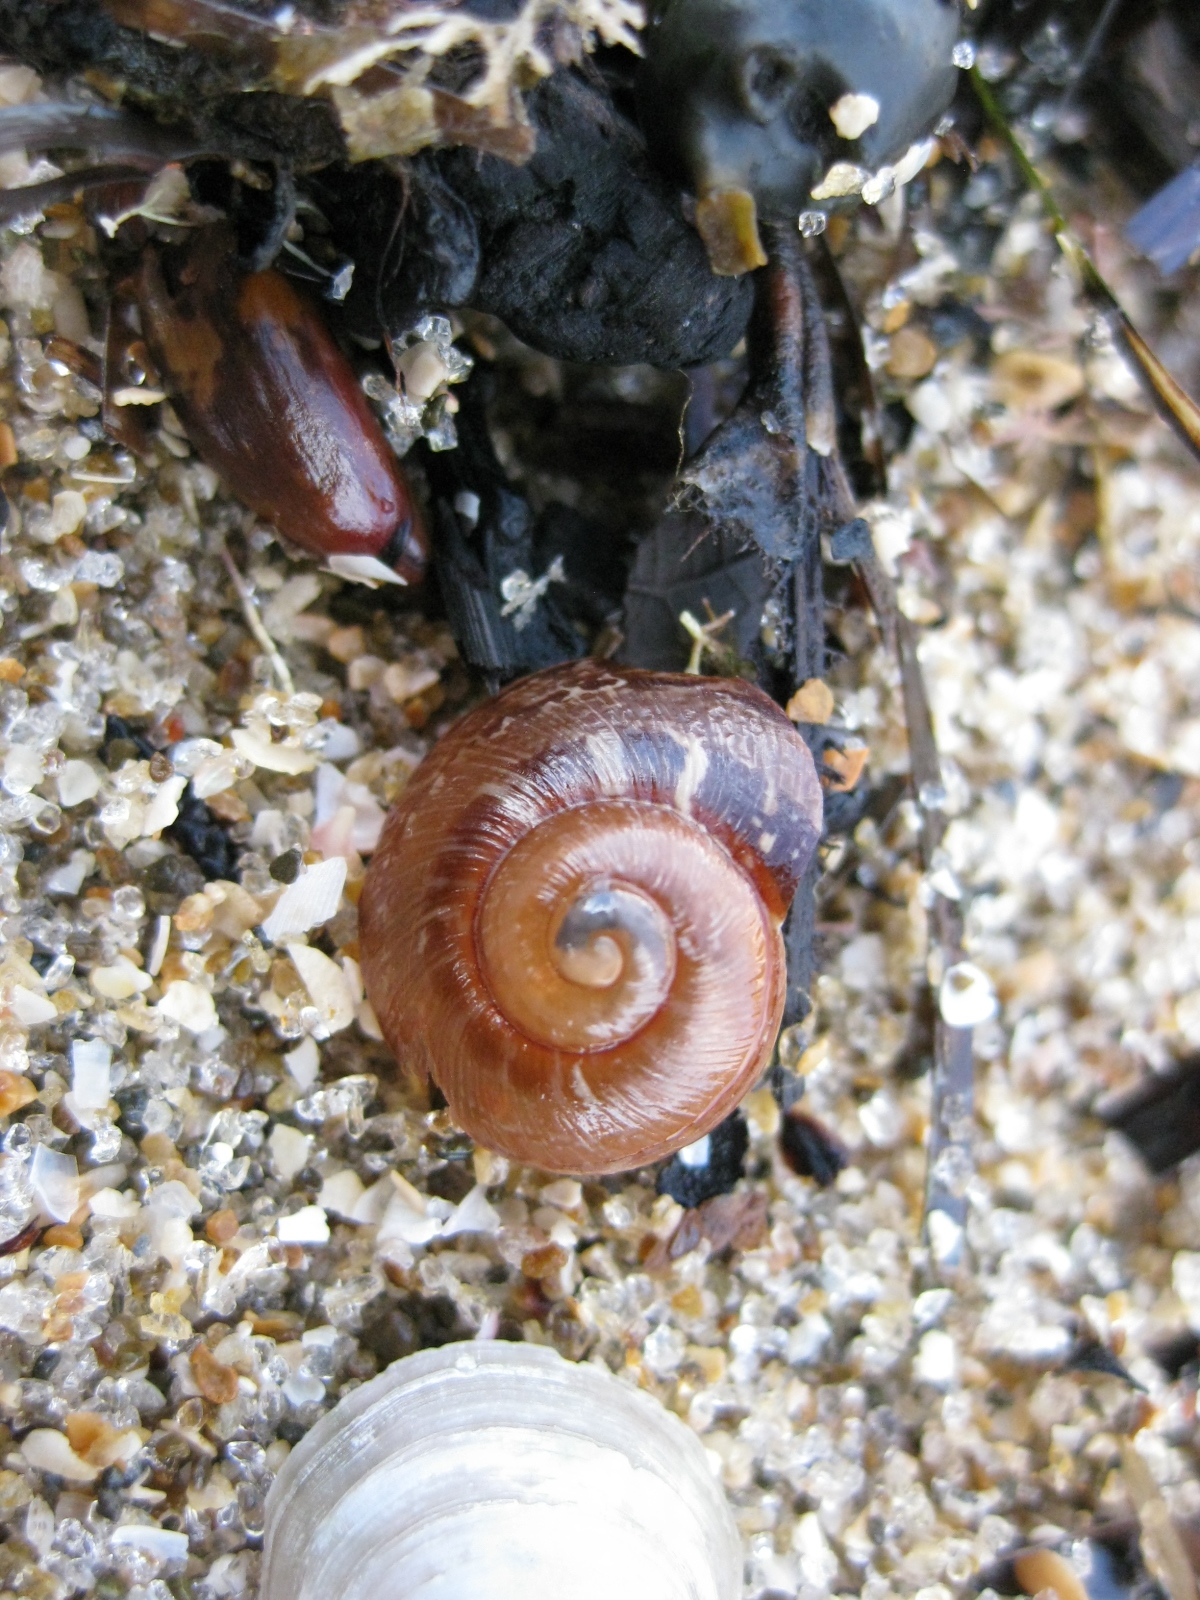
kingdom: Animalia
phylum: Mollusca
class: Gastropoda
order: Stylommatophora
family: Helicidae
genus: Cornu
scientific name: Cornu aspersum
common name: Brown garden snail
